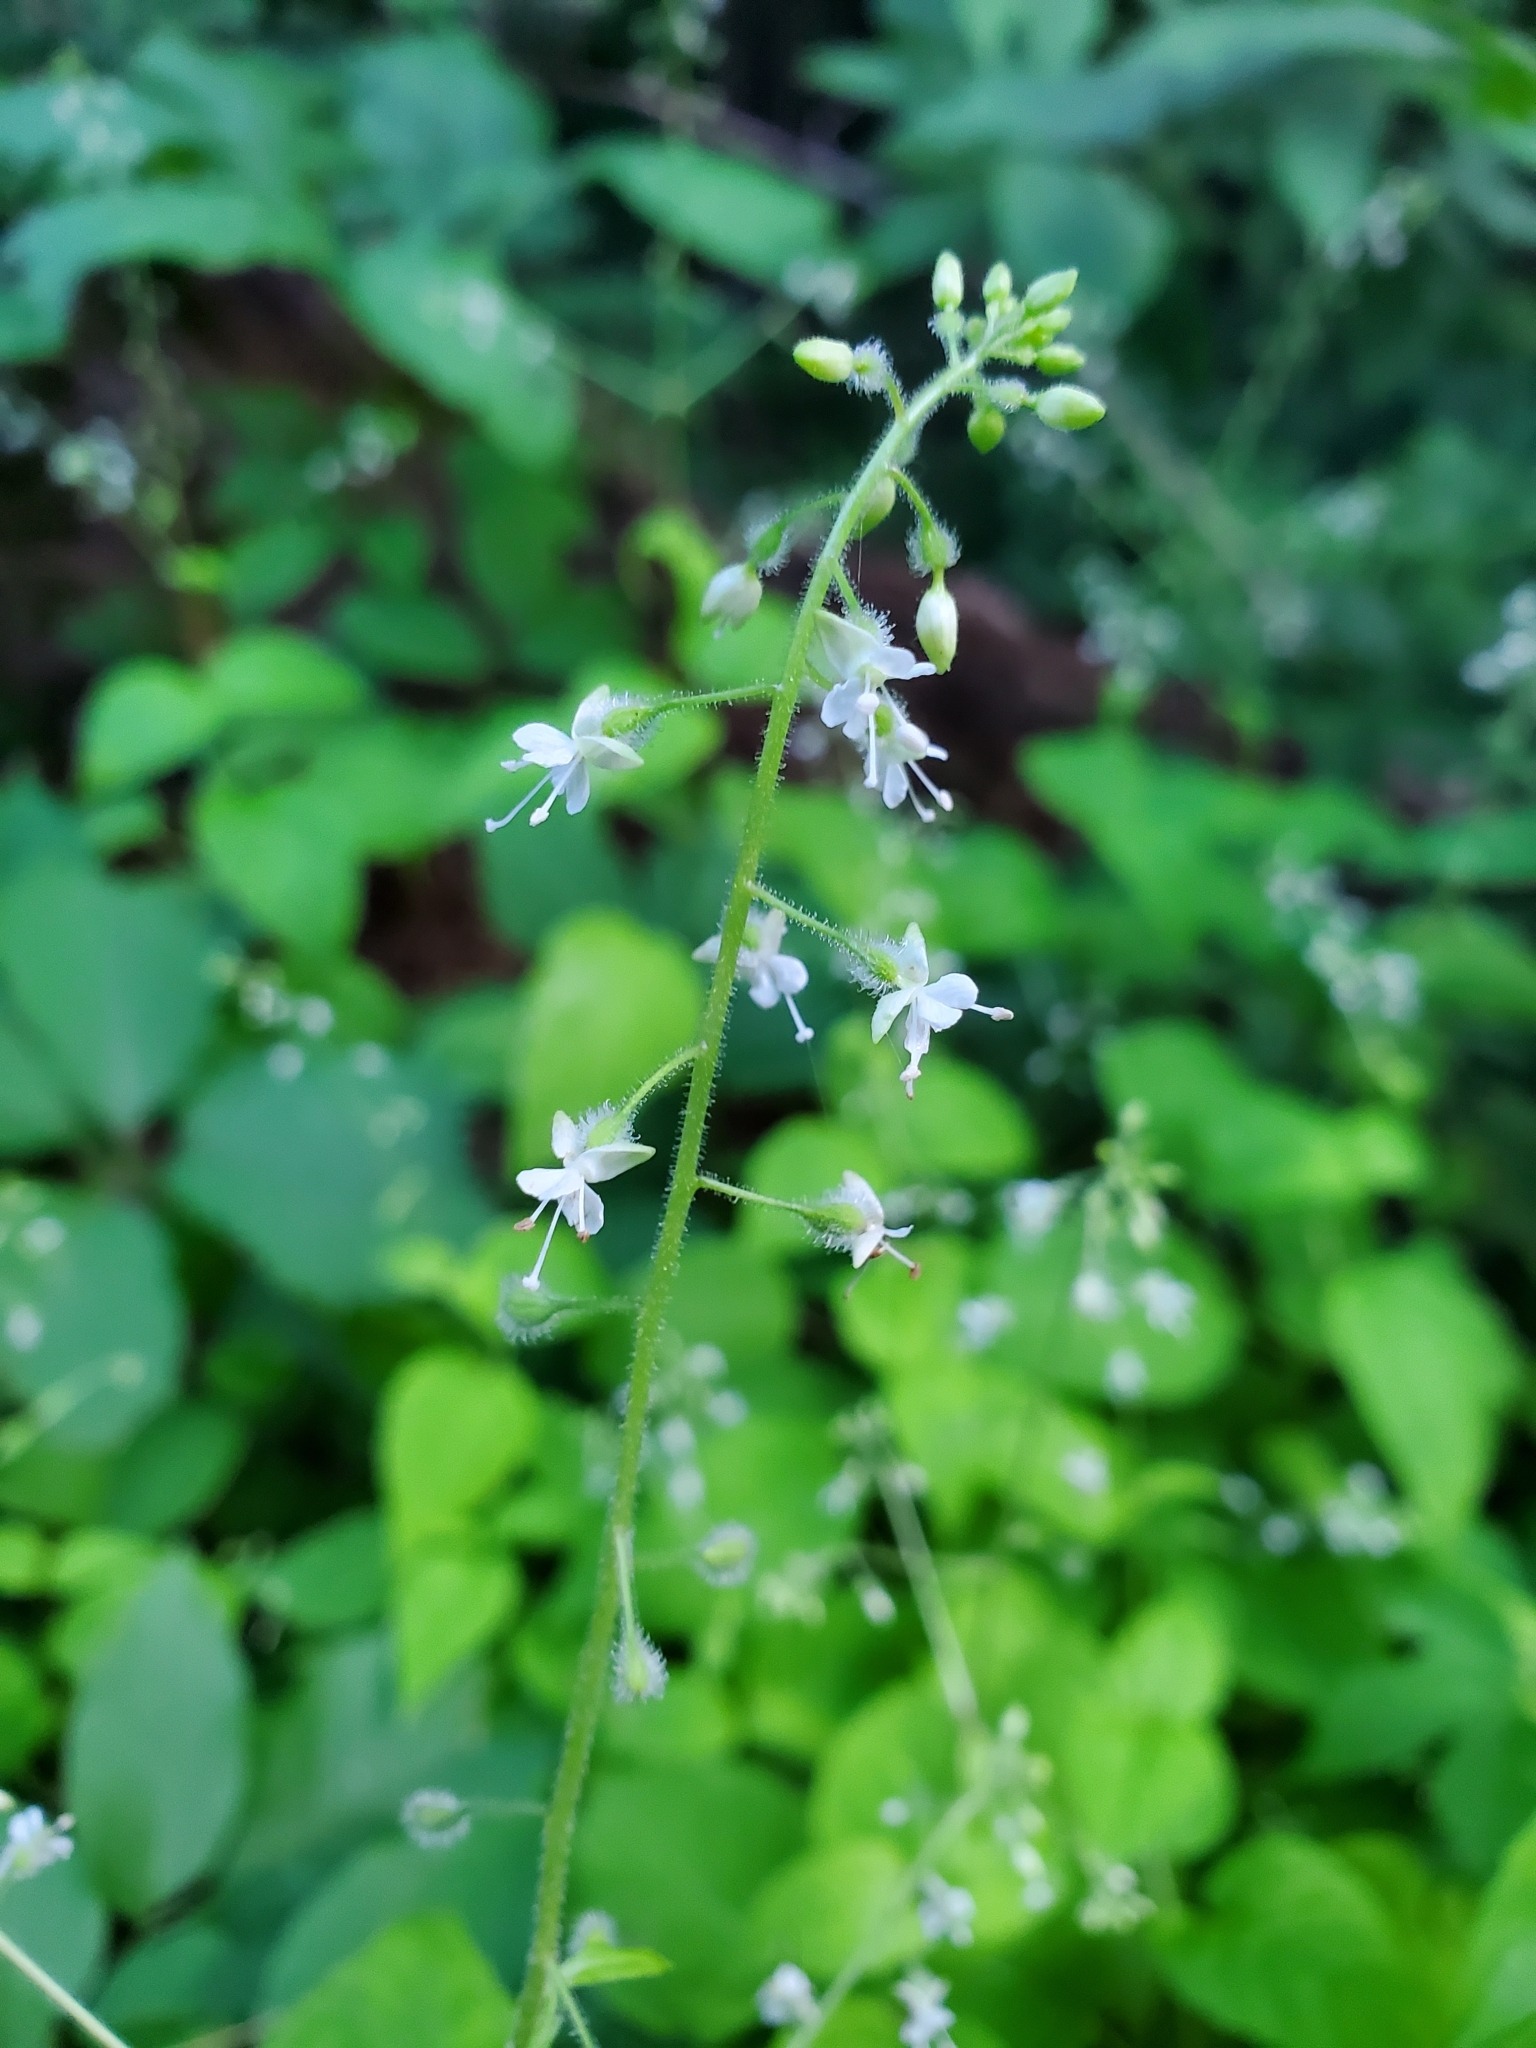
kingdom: Plantae
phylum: Tracheophyta
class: Magnoliopsida
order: Myrtales
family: Onagraceae
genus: Circaea
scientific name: Circaea canadensis
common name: Broad-leaved enchanter's nightshade
